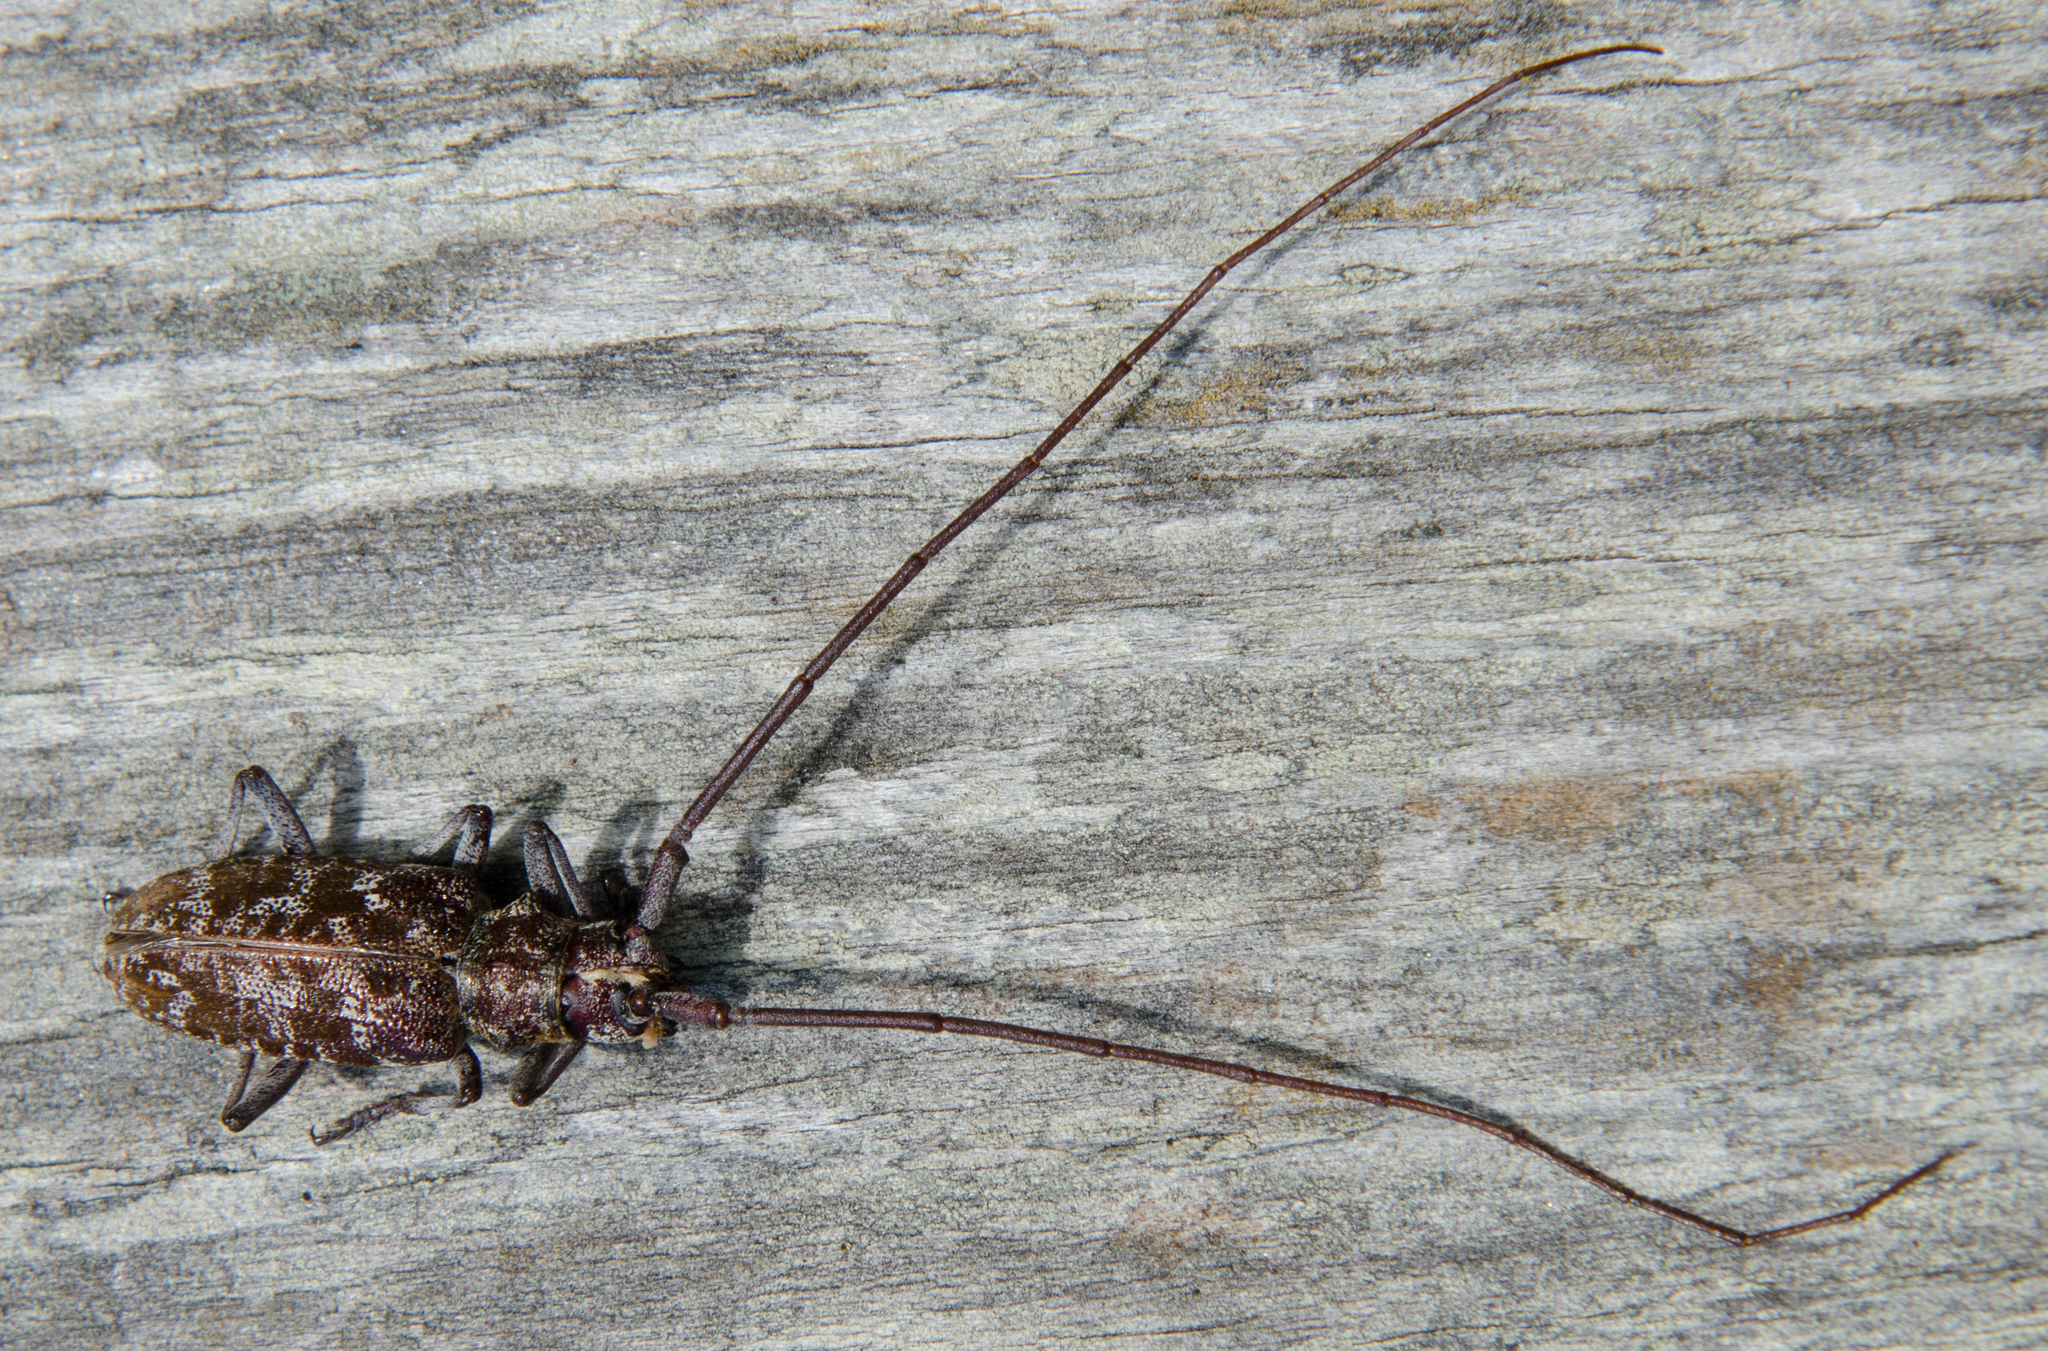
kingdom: Animalia
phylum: Arthropoda
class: Insecta
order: Coleoptera
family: Cerambycidae
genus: Monochamus
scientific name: Monochamus obtusus
